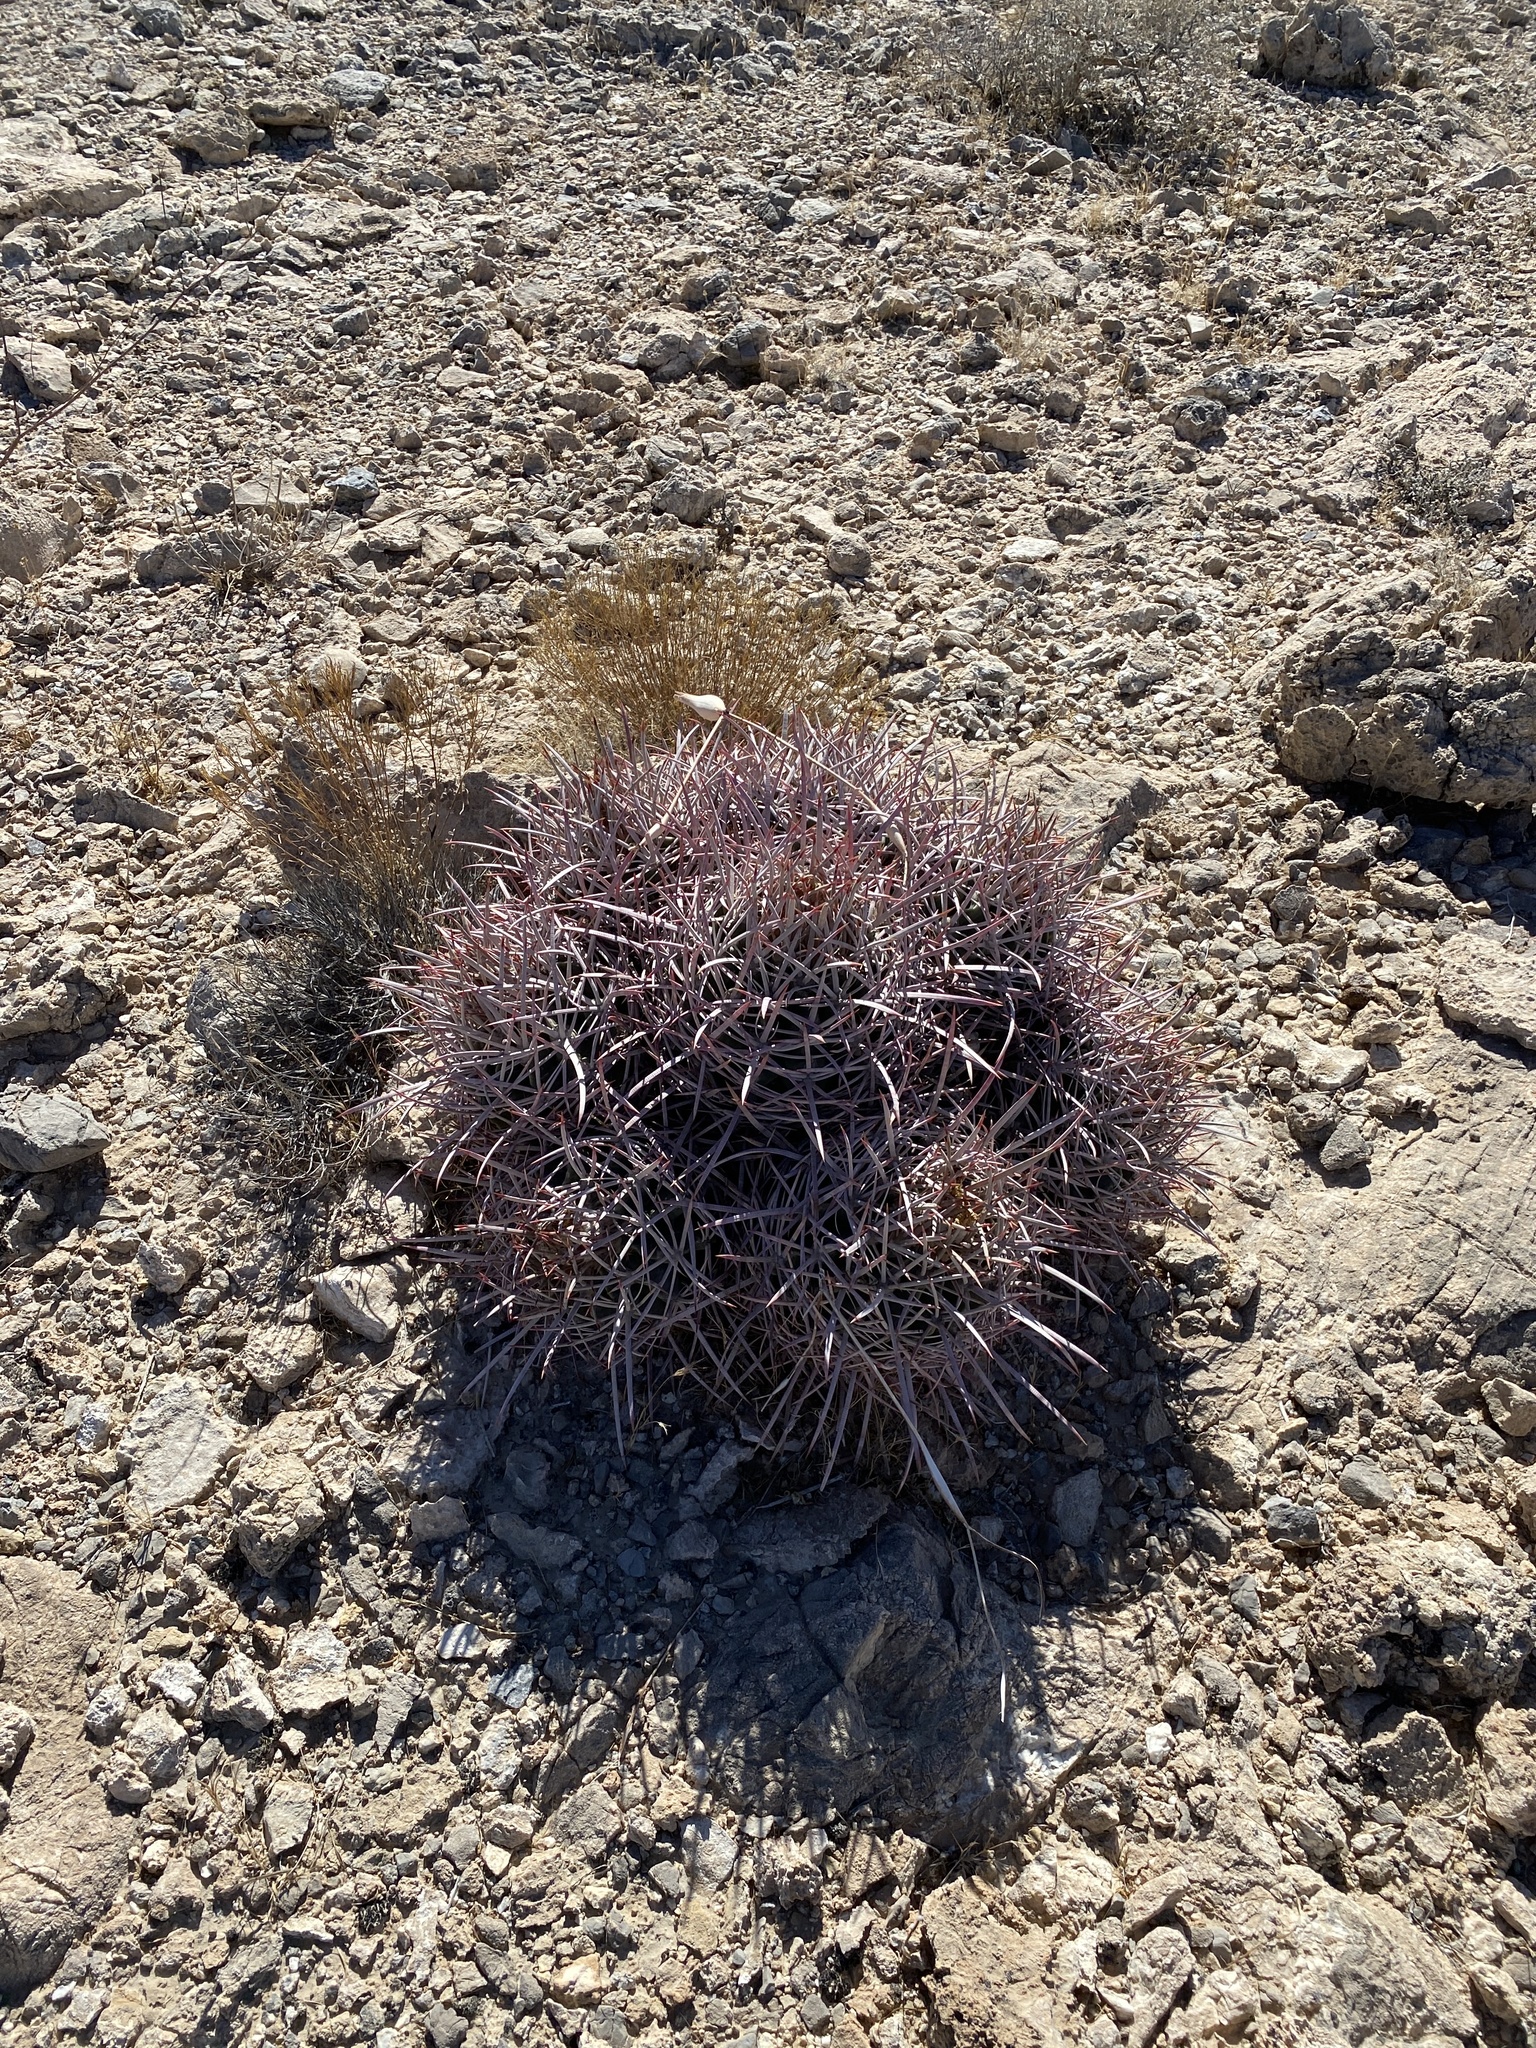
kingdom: Plantae
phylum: Tracheophyta
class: Magnoliopsida
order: Caryophyllales
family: Cactaceae
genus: Echinocactus
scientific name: Echinocactus polycephalus
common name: Cottontop cactus
